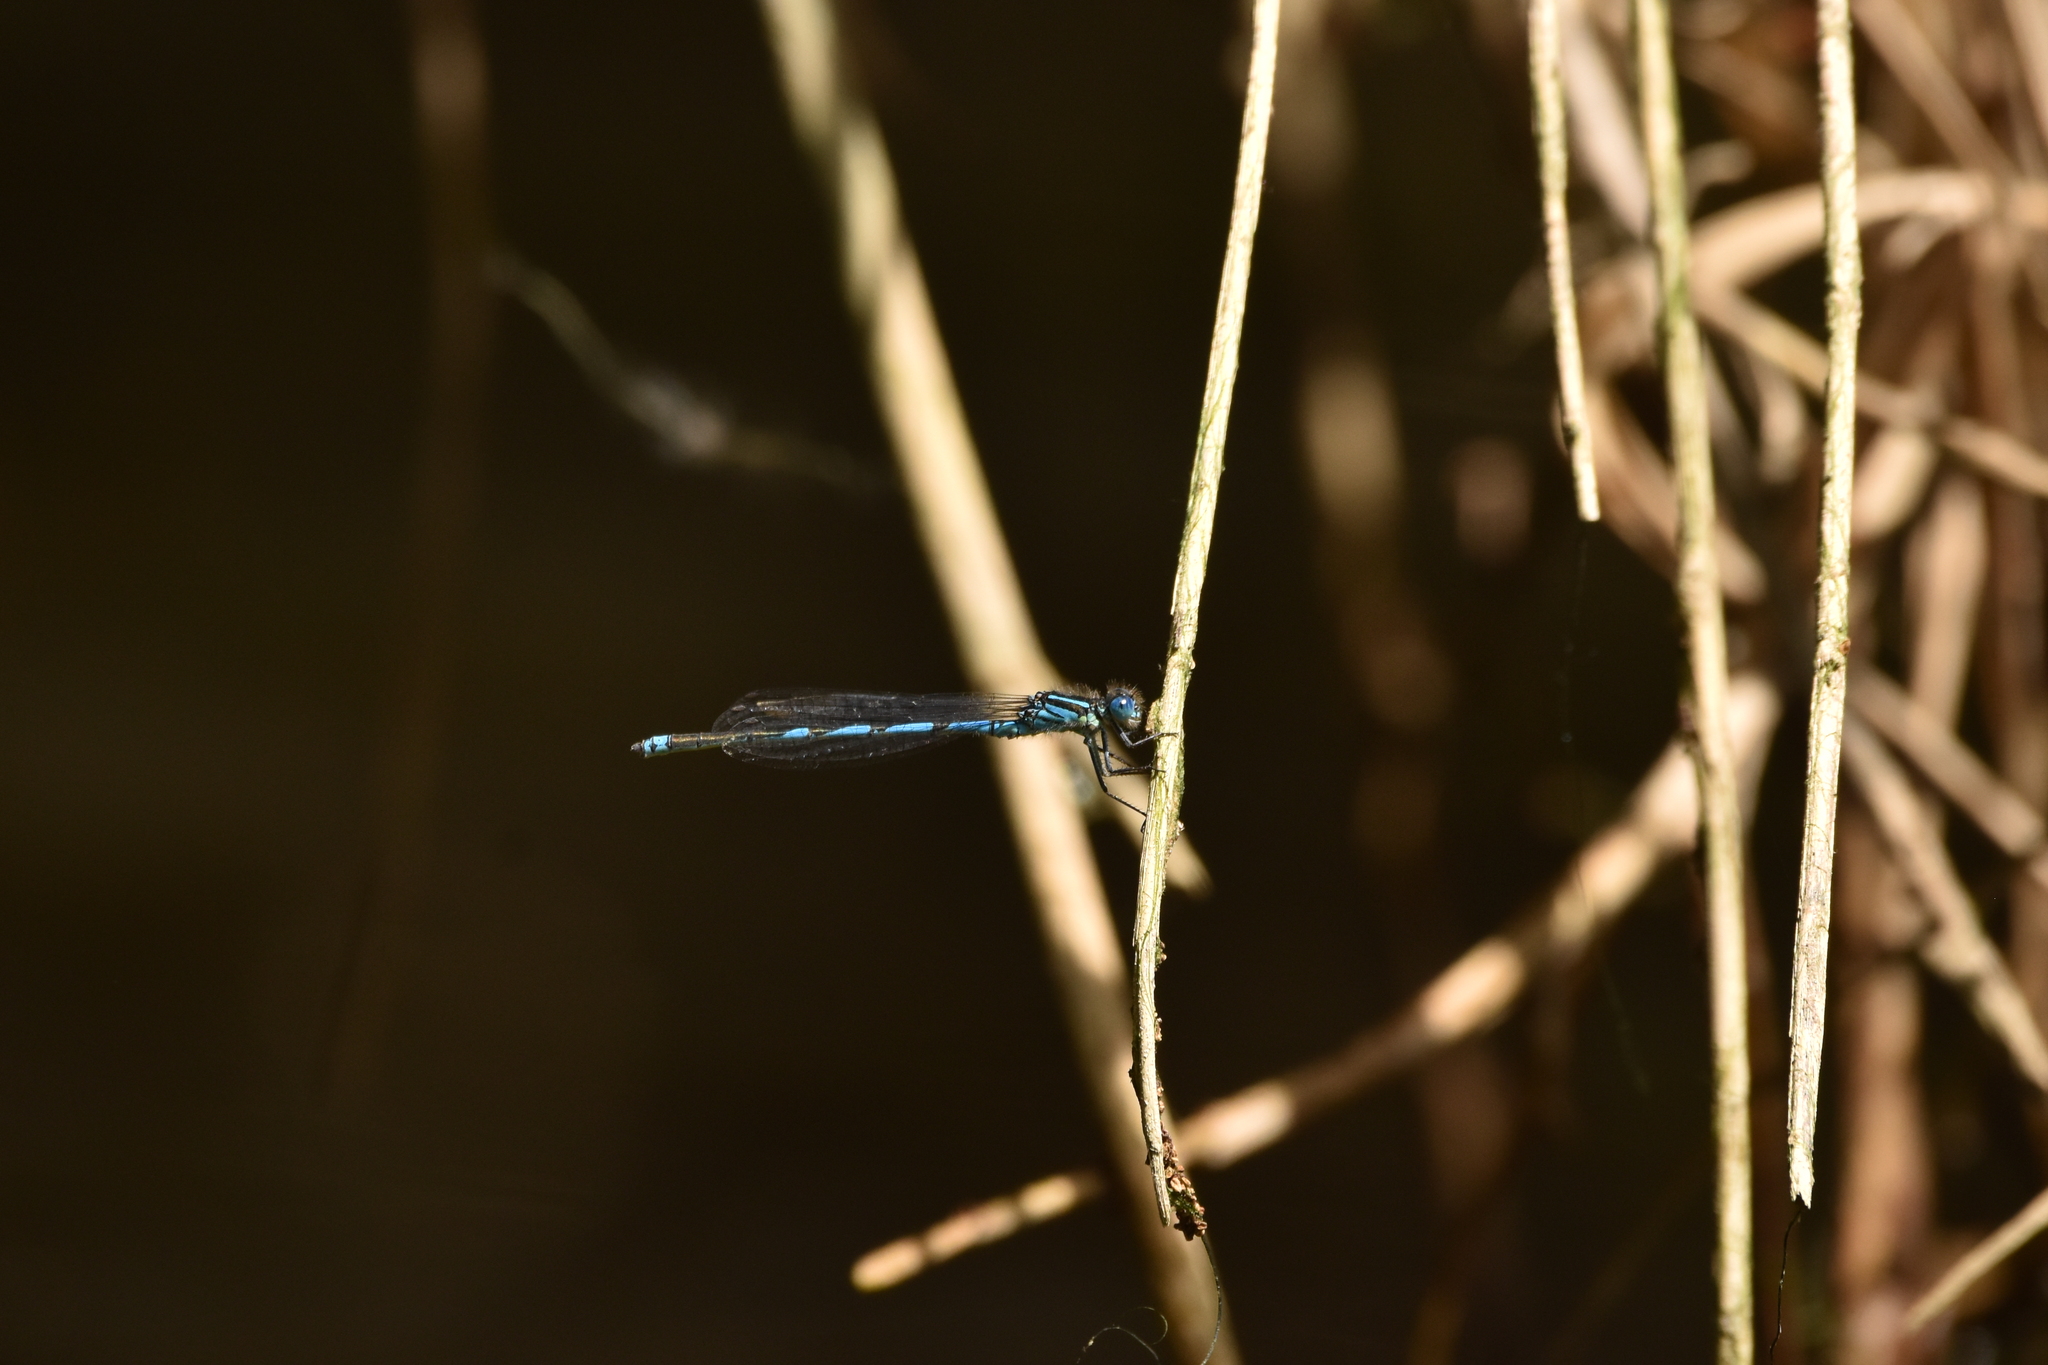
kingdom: Animalia
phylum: Arthropoda
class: Insecta
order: Odonata
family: Coenagrionidae
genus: Erythromma
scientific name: Erythromma lindenii
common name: Blue-eye
